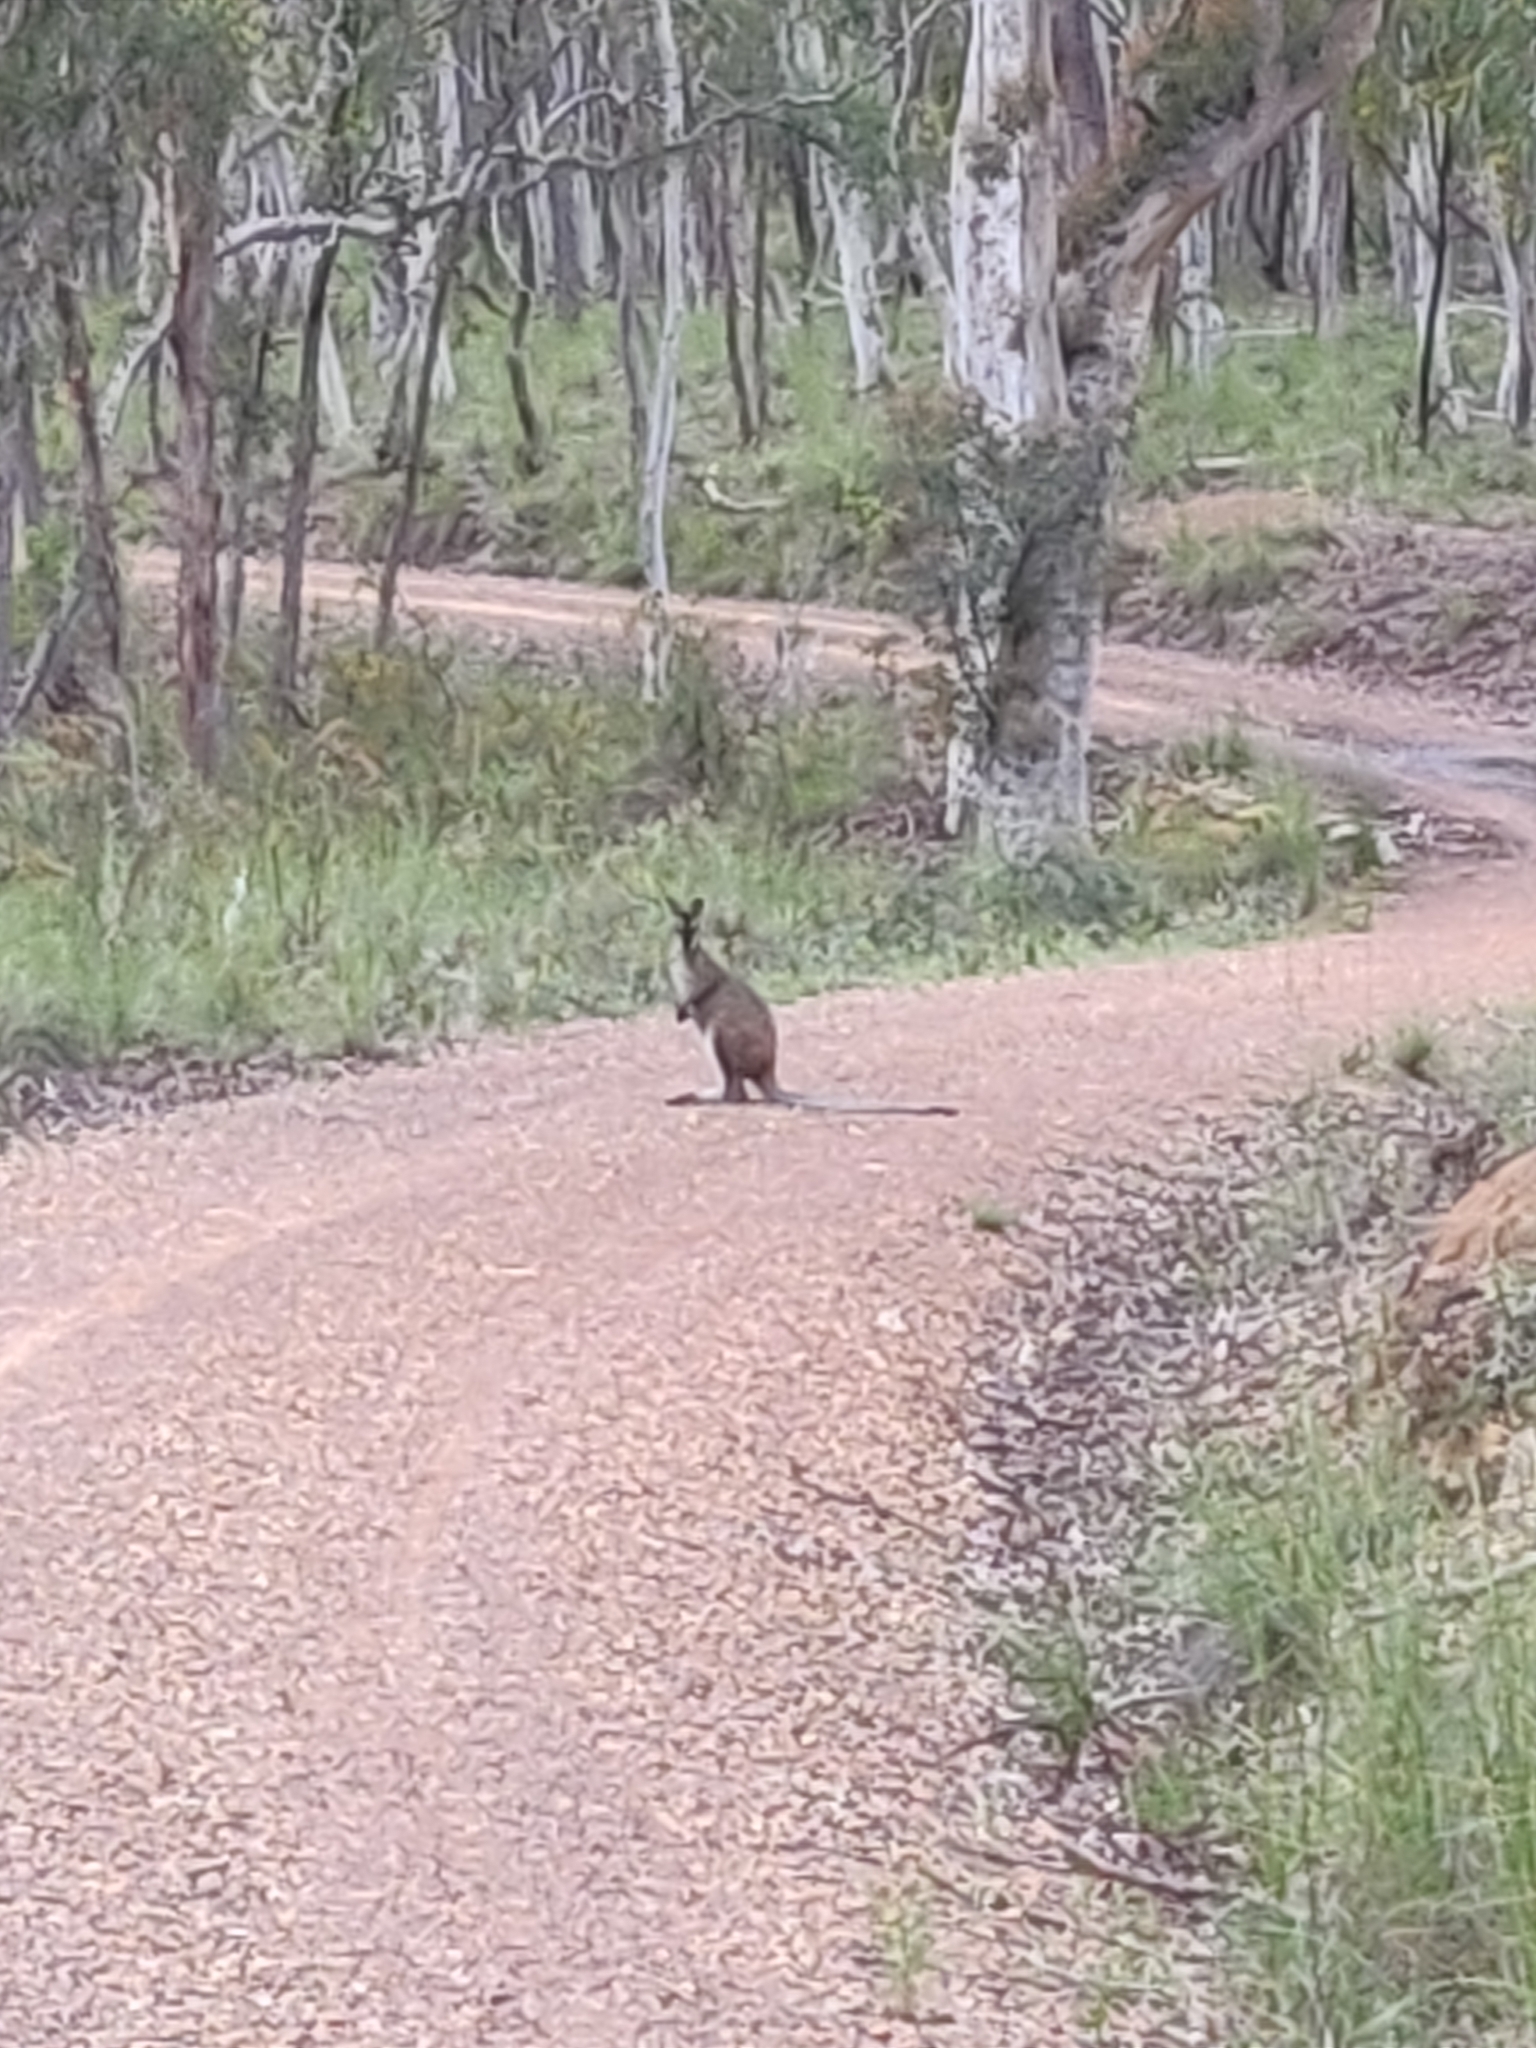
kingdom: Animalia
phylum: Chordata
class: Mammalia
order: Diprotodontia
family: Macropodidae
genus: Notamacropus
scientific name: Notamacropus rufogriseus
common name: Red-necked wallaby
